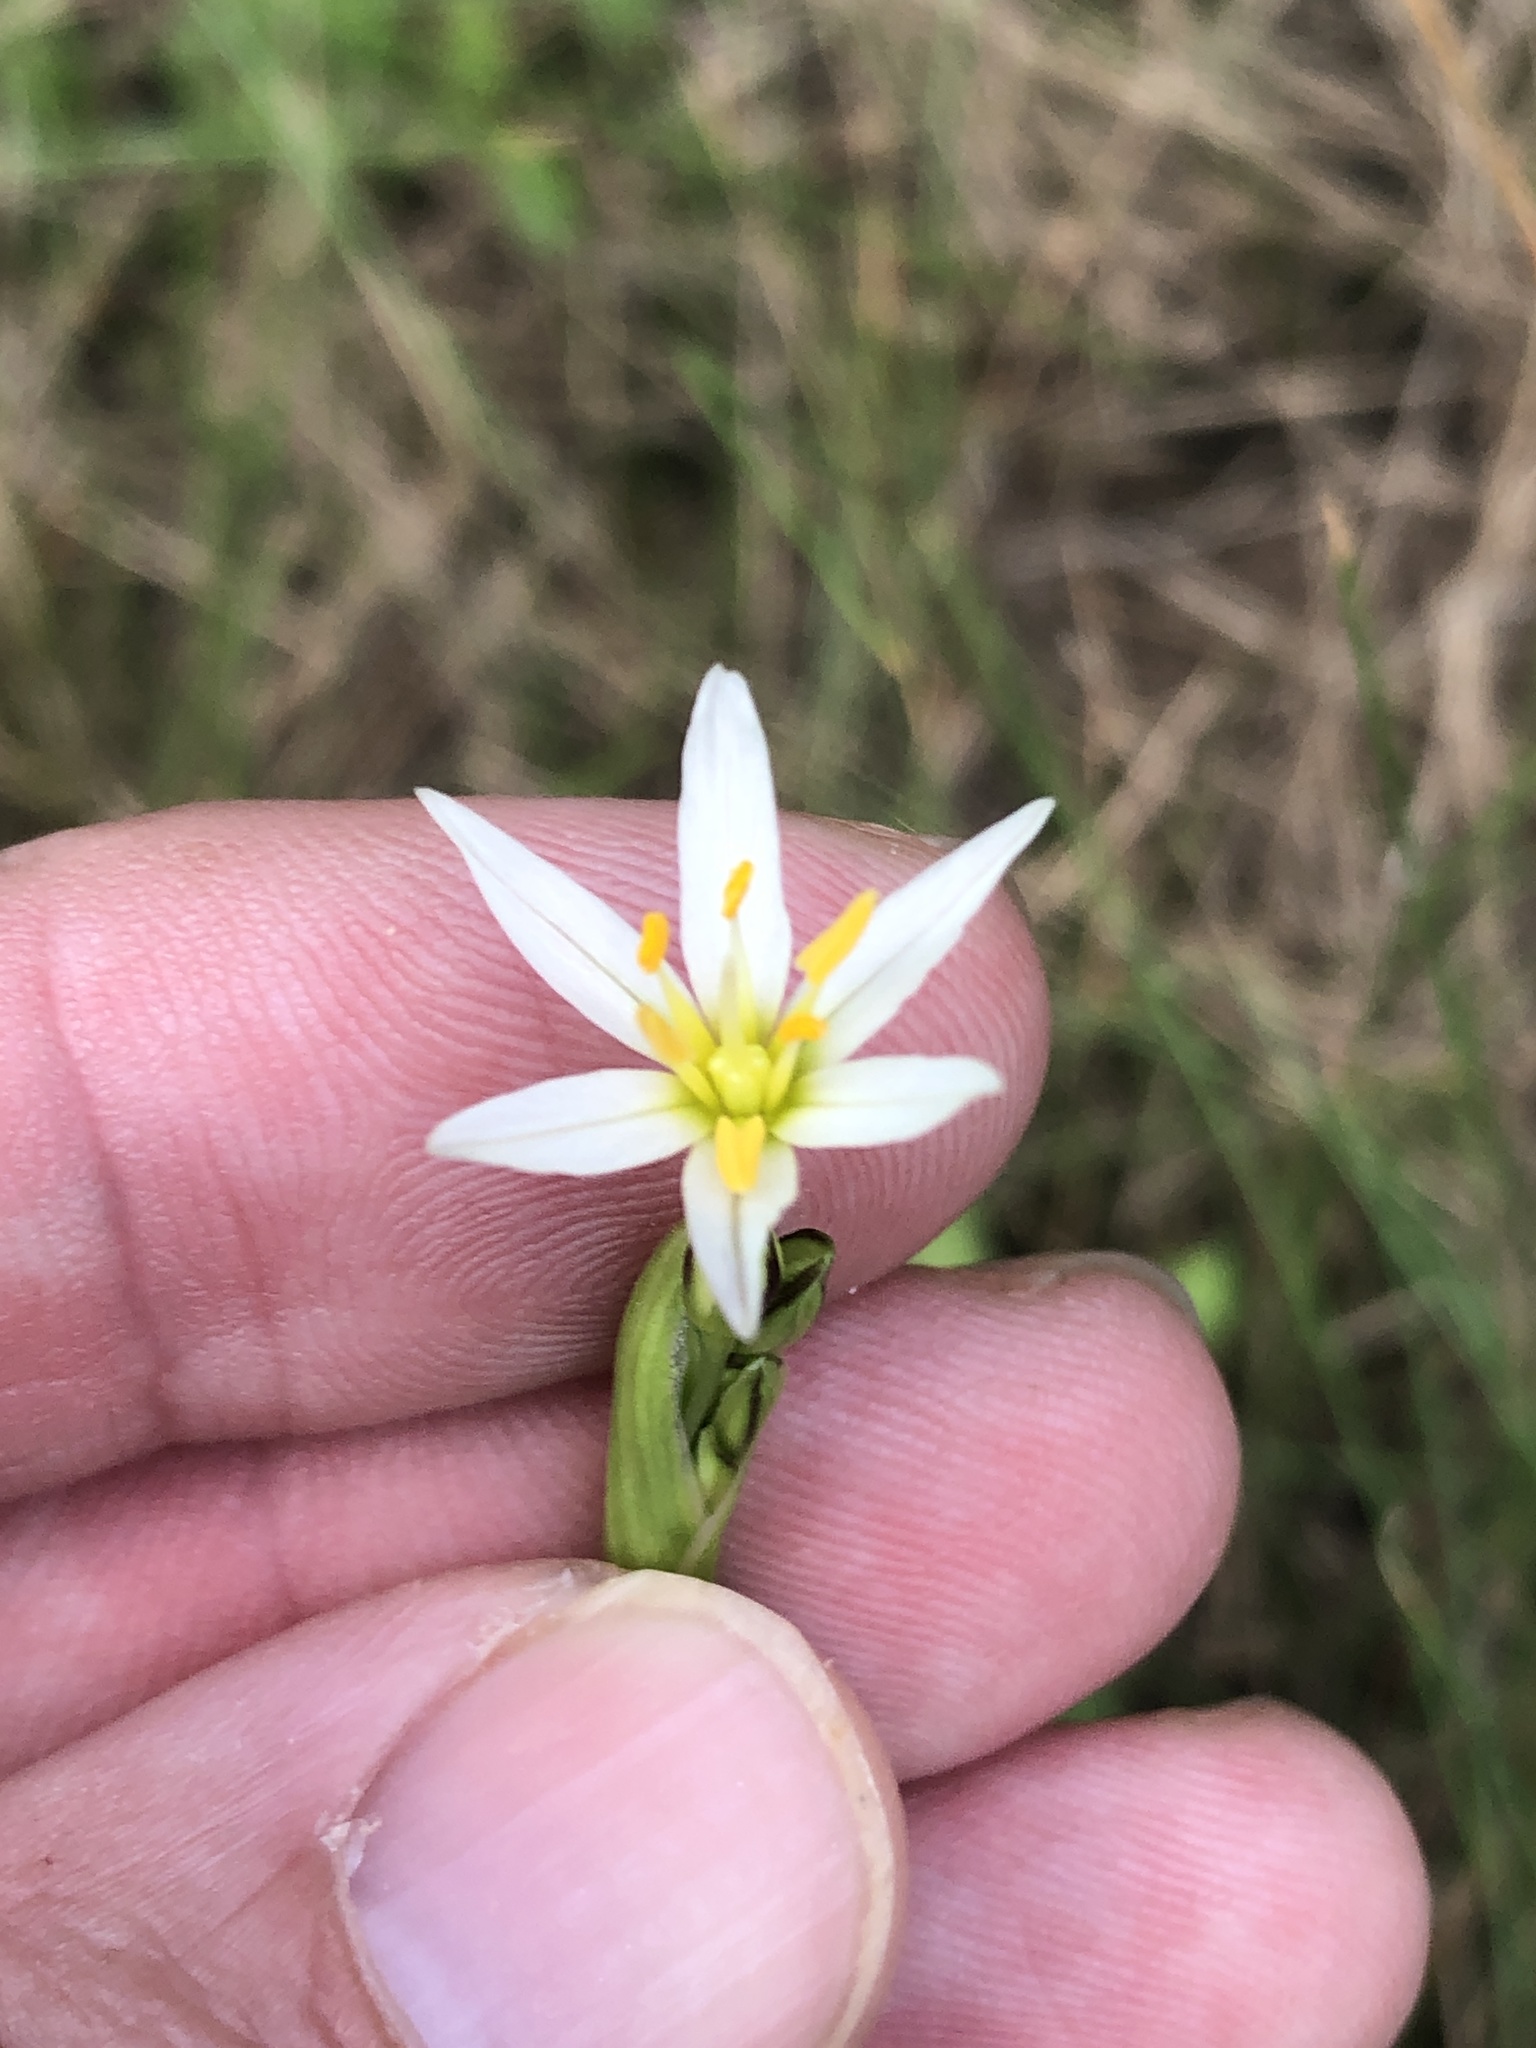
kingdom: Plantae
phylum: Tracheophyta
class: Liliopsida
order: Asparagales
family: Amaryllidaceae
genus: Nothoscordum
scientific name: Nothoscordum bivalve
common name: Crow-poison
